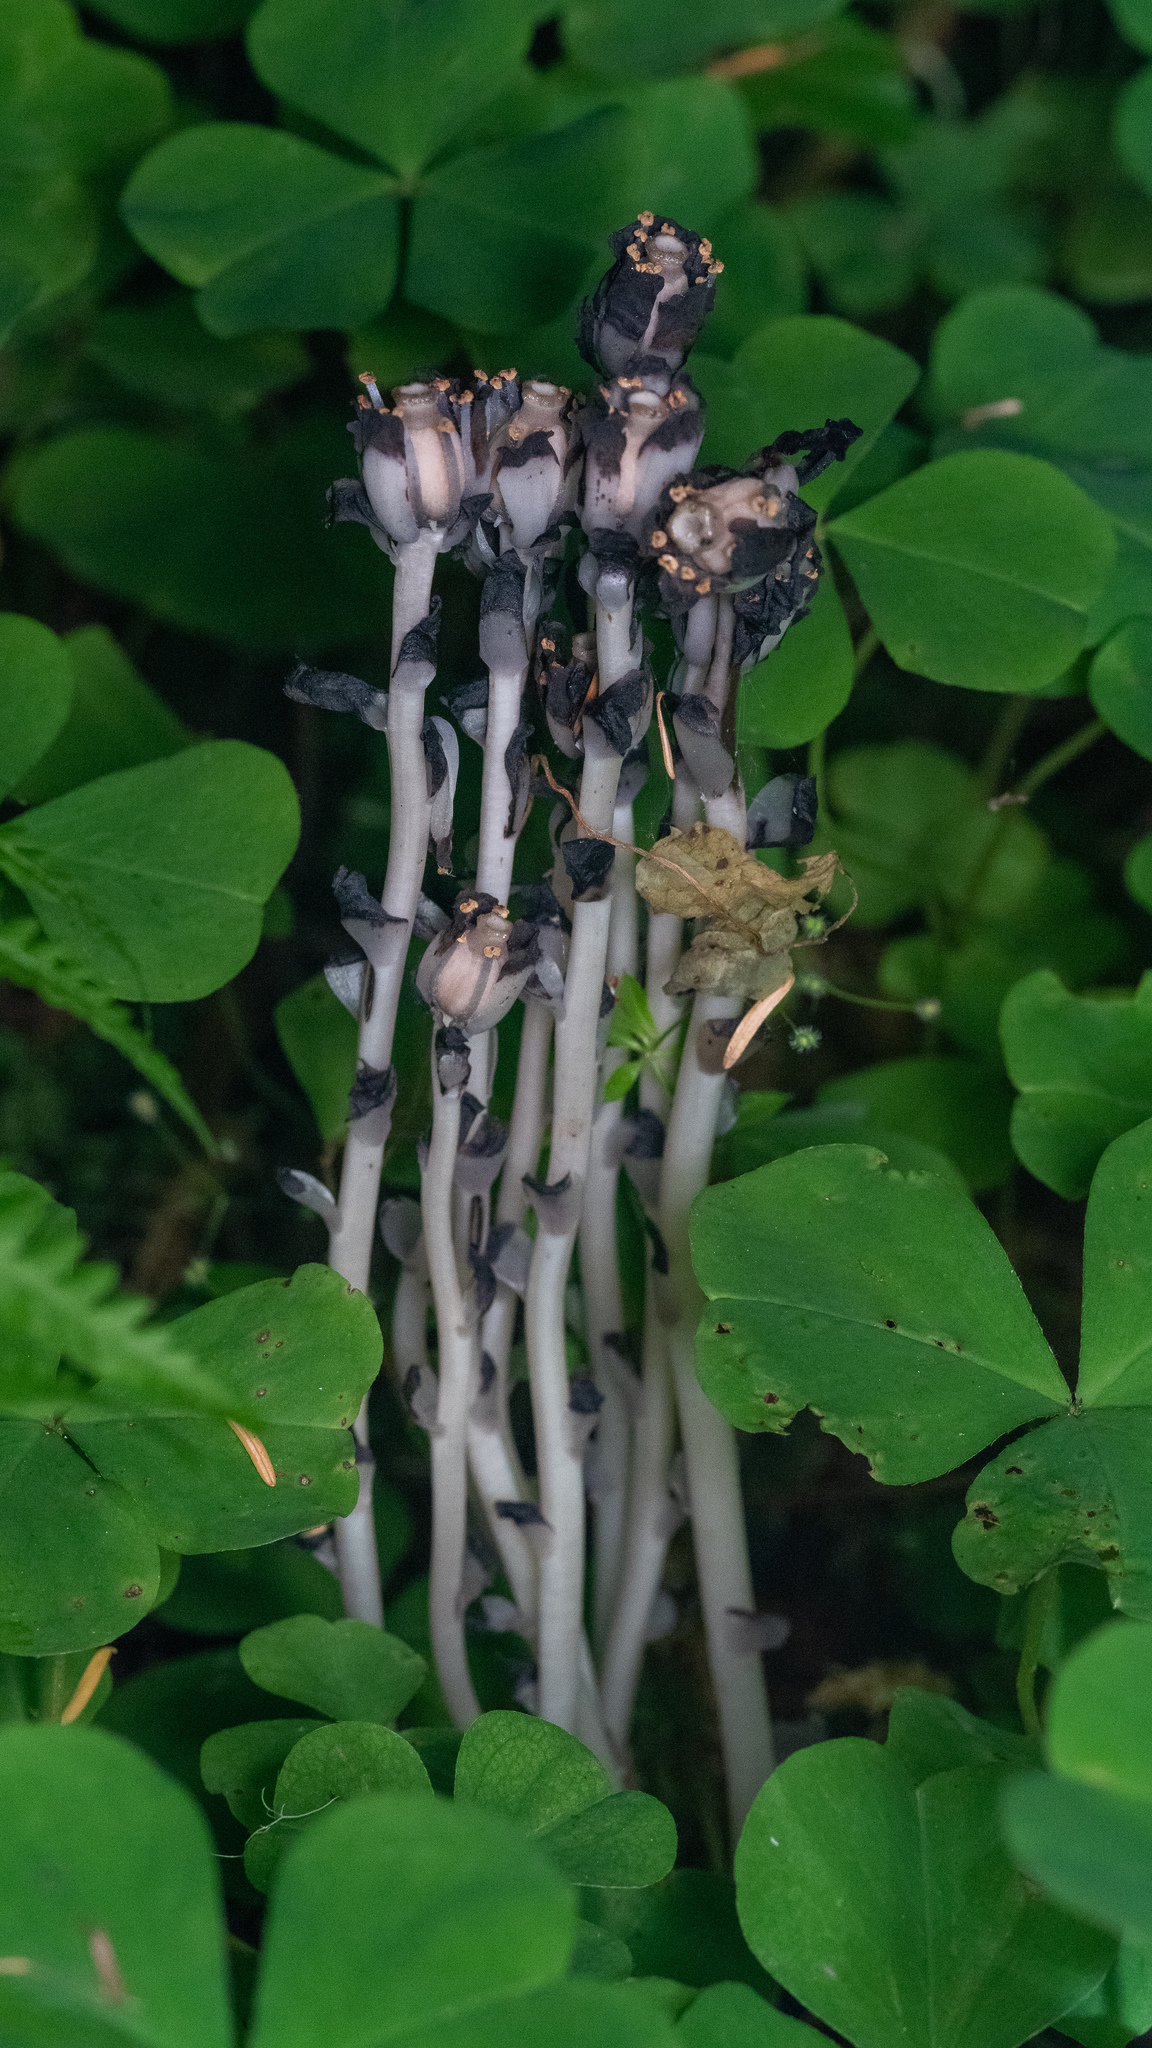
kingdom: Plantae
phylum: Tracheophyta
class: Magnoliopsida
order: Ericales
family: Ericaceae
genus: Monotropa
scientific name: Monotropa uniflora
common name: Convulsion root
